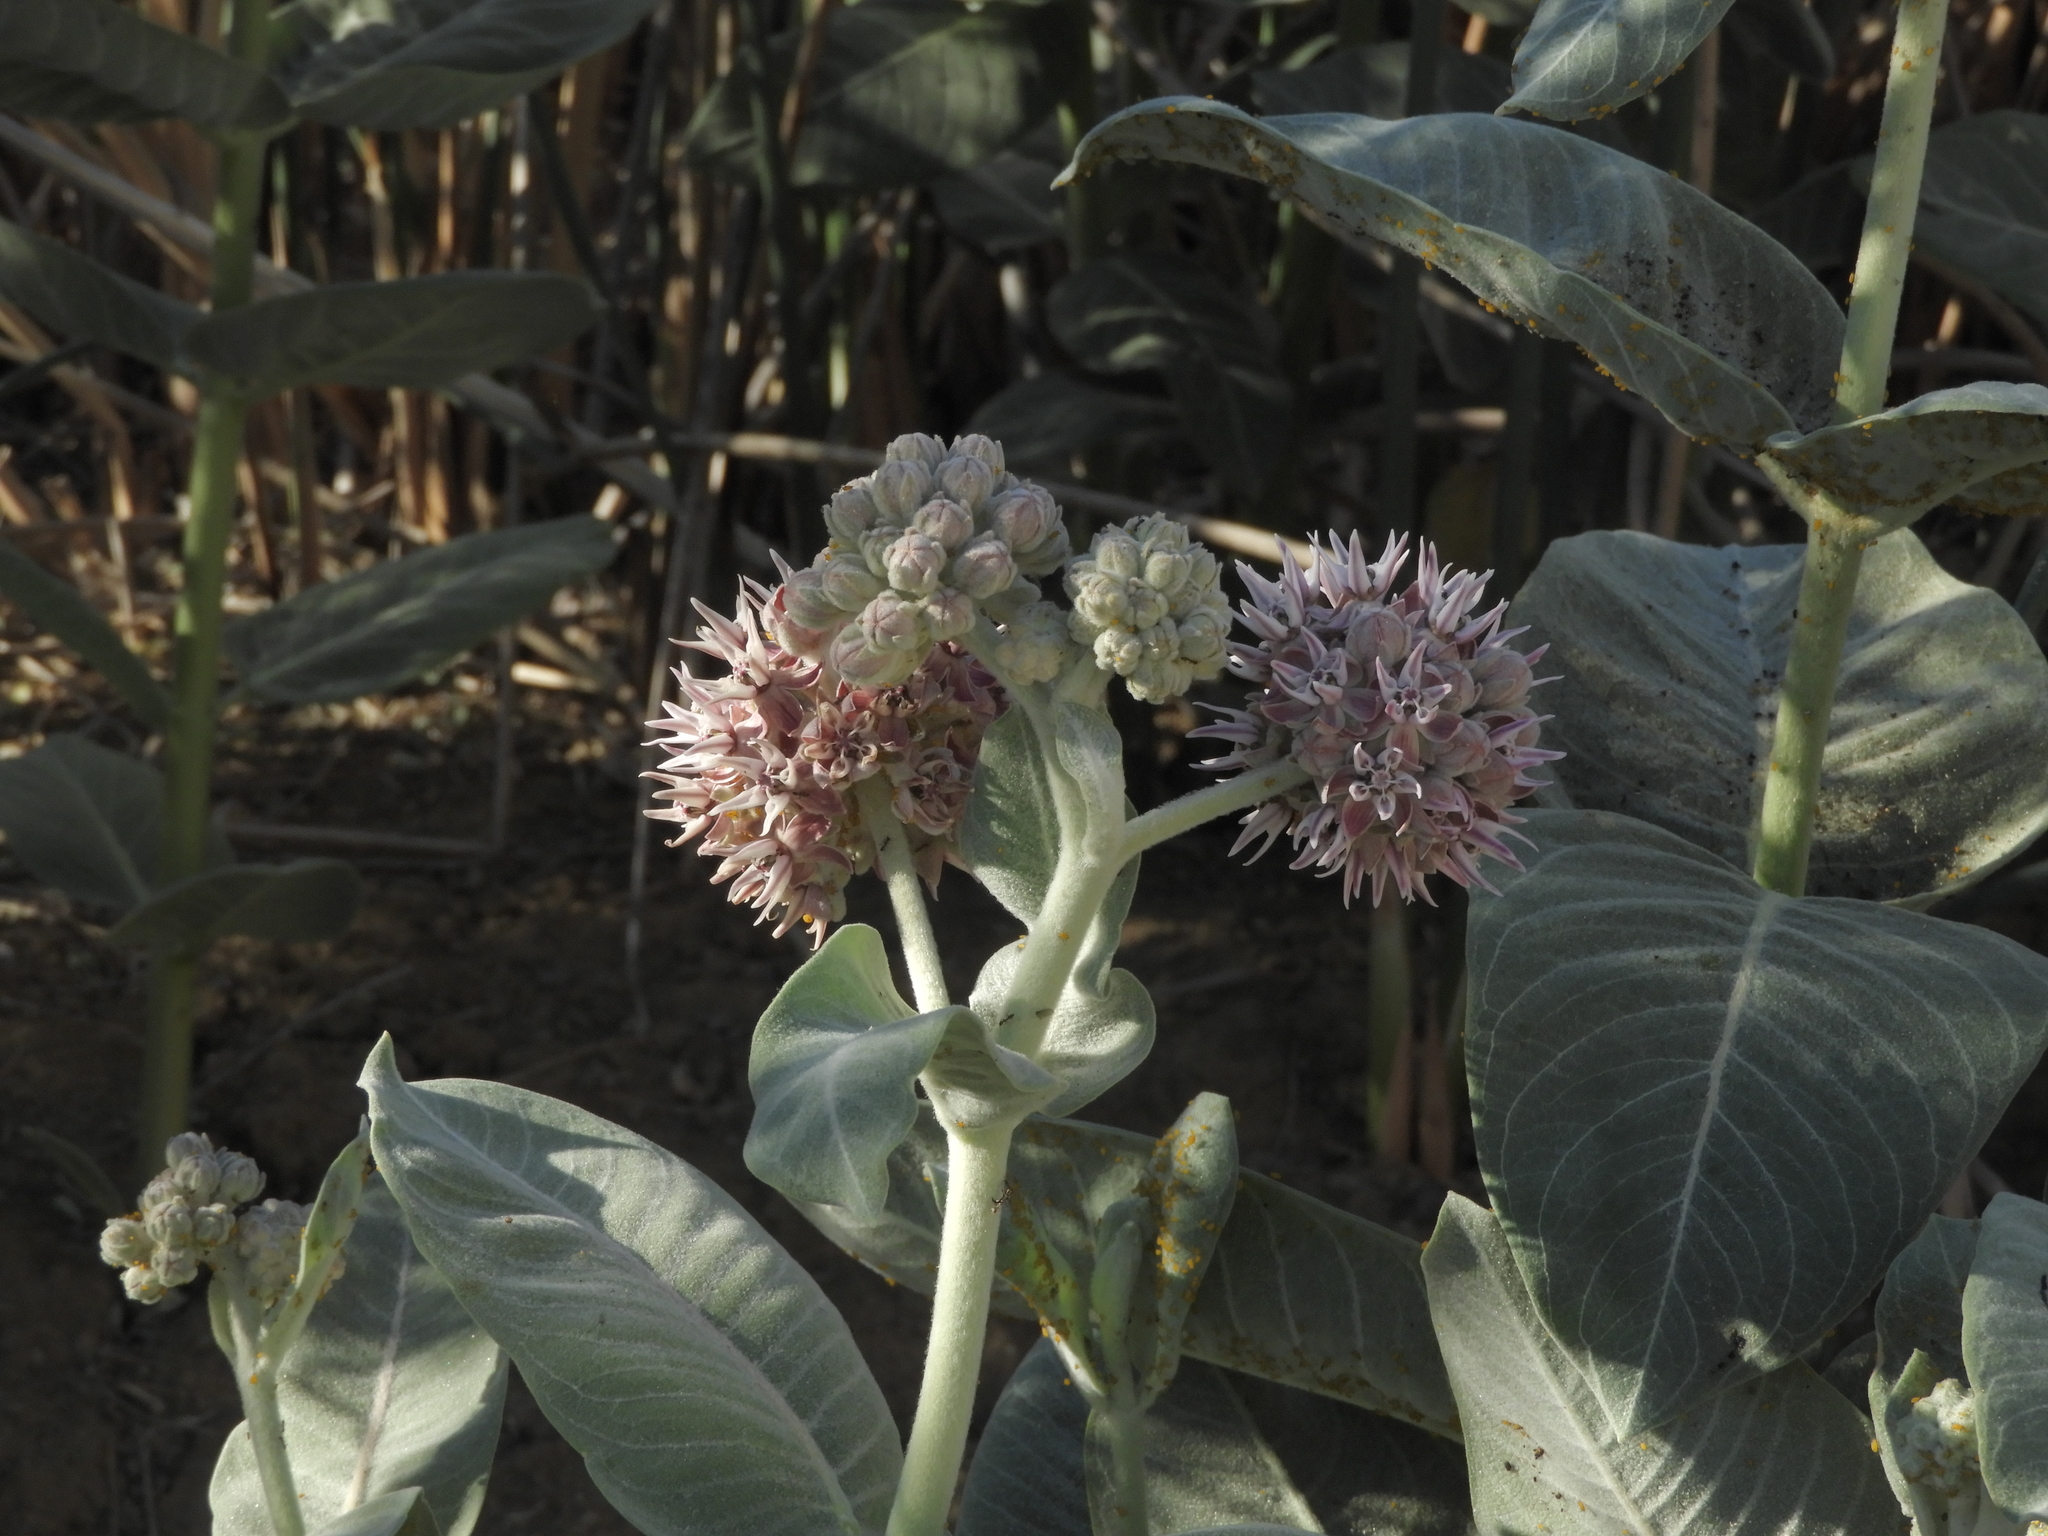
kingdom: Plantae
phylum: Tracheophyta
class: Magnoliopsida
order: Gentianales
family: Apocynaceae
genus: Asclepias
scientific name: Asclepias speciosa
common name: Showy milkweed
